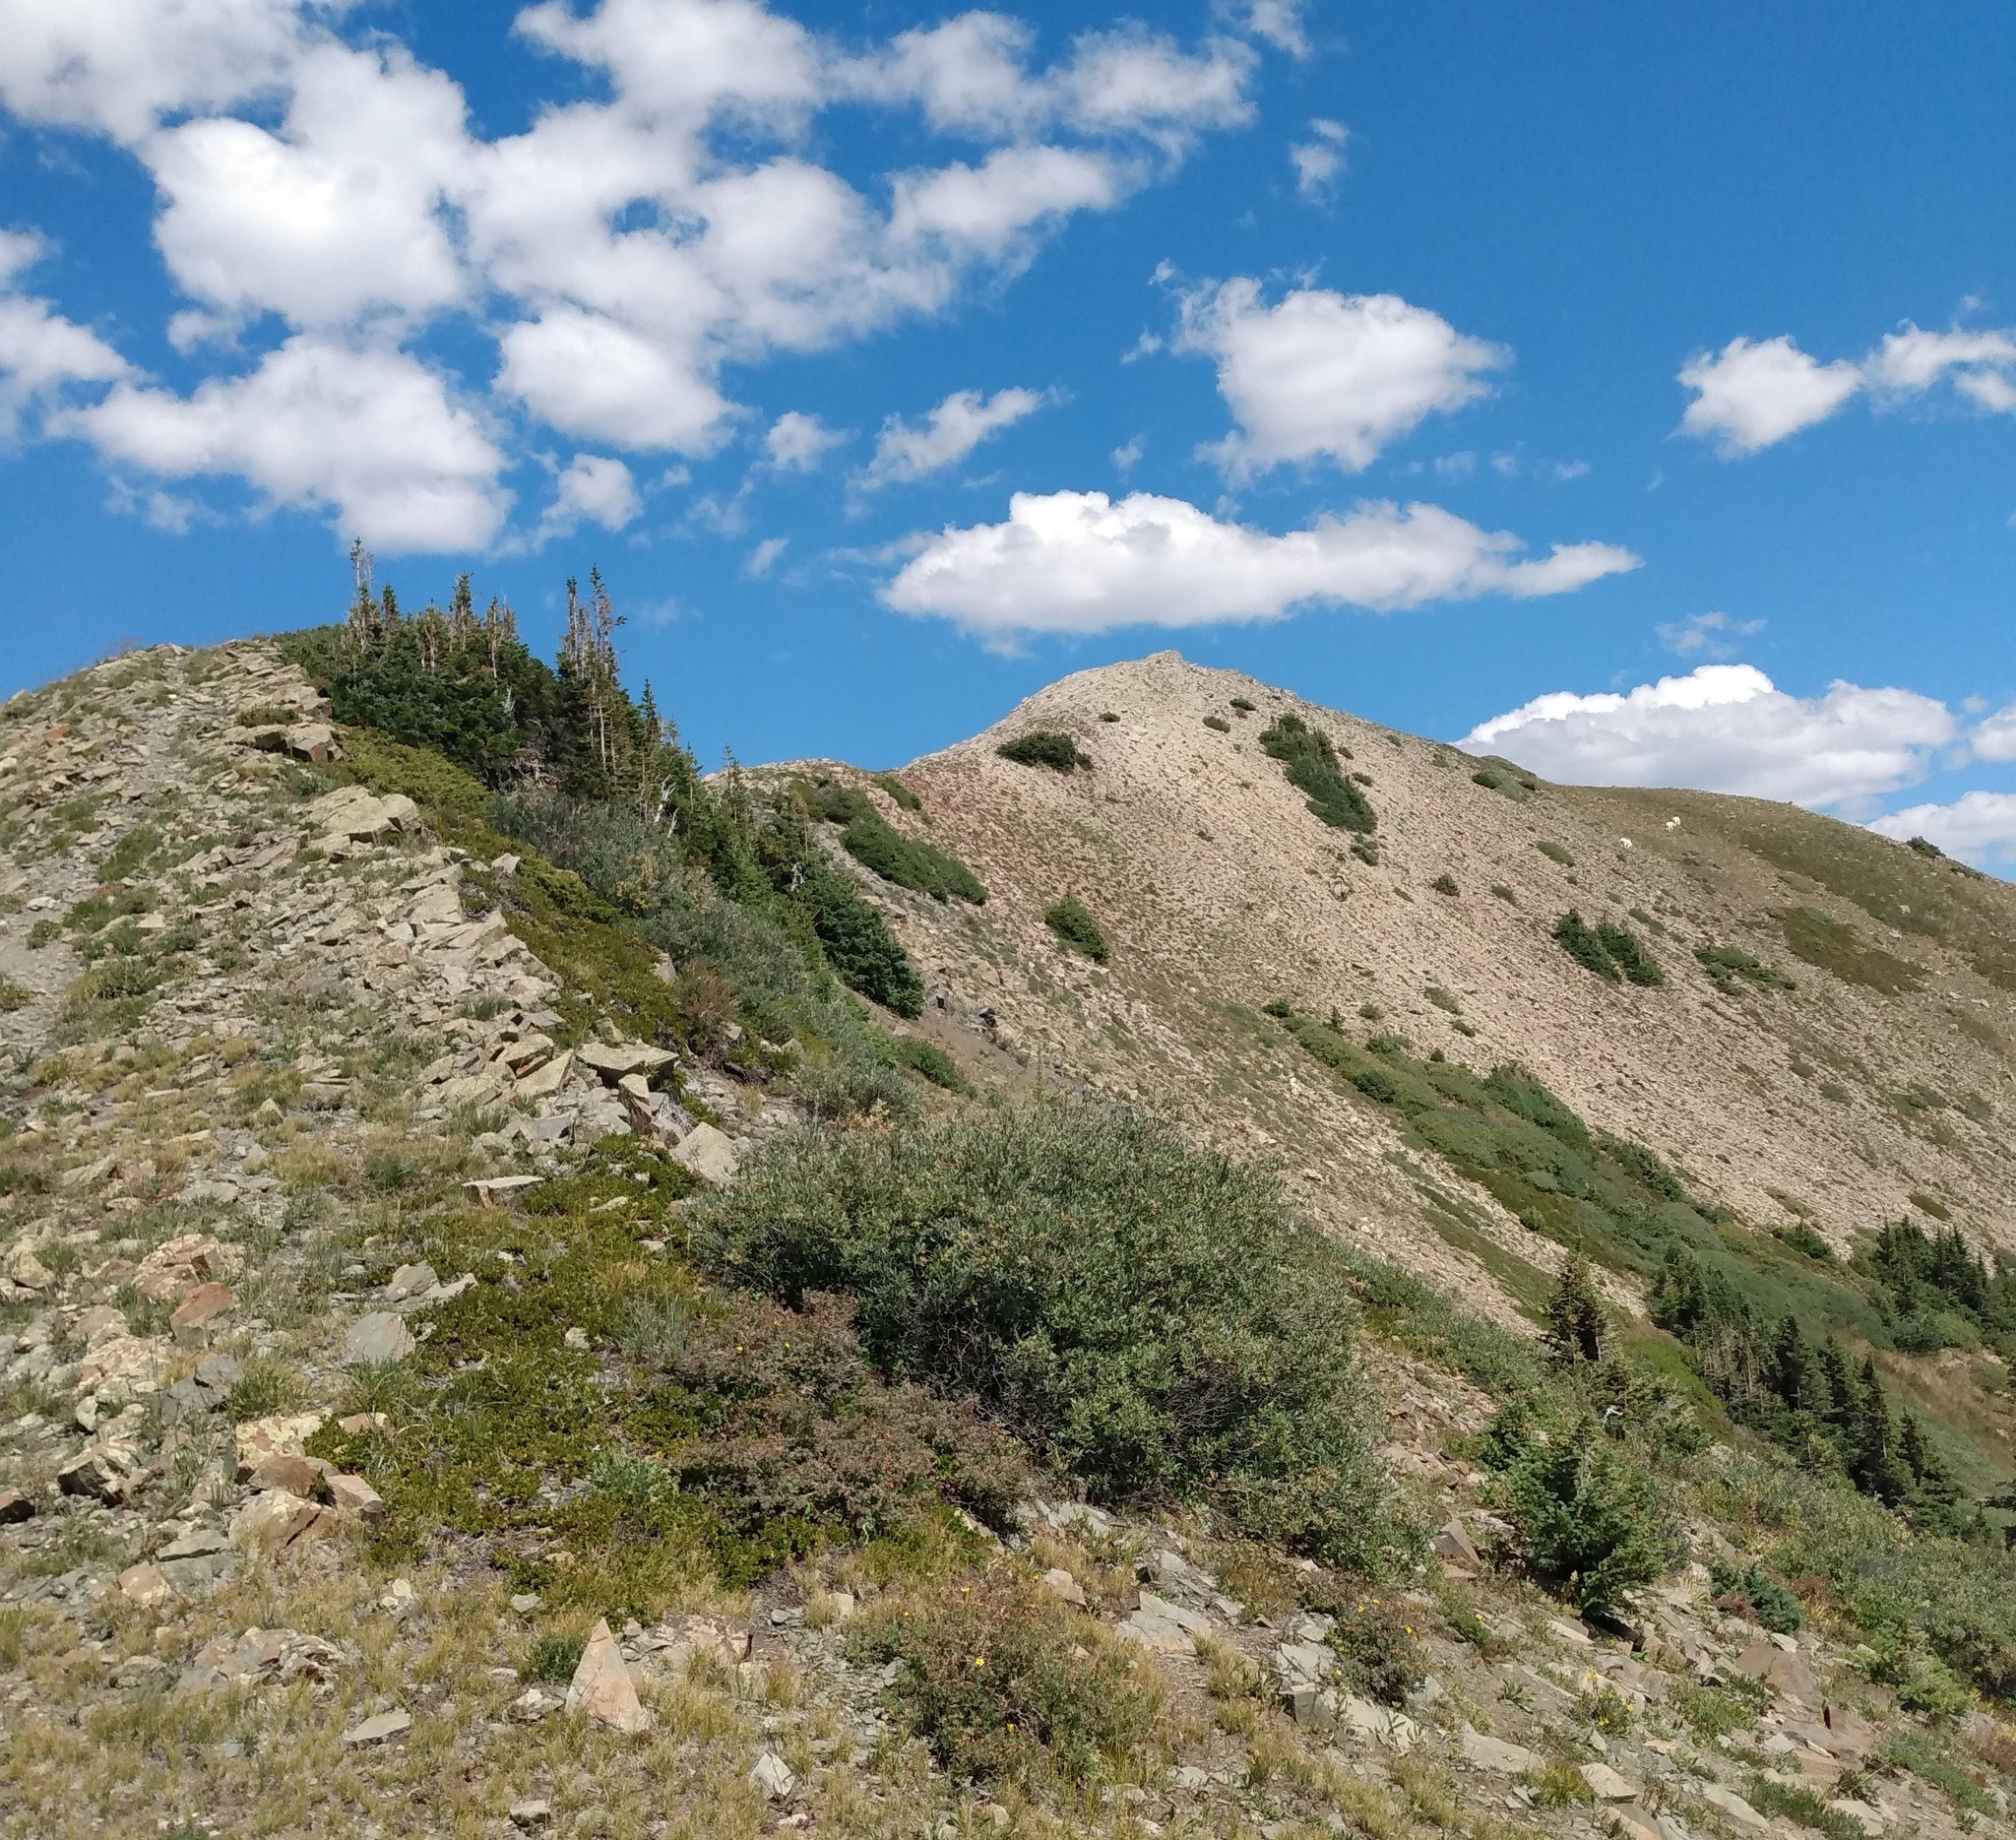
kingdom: Animalia
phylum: Chordata
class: Mammalia
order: Artiodactyla
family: Bovidae
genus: Oreamnos
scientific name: Oreamnos americanus
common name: Mountain goat
